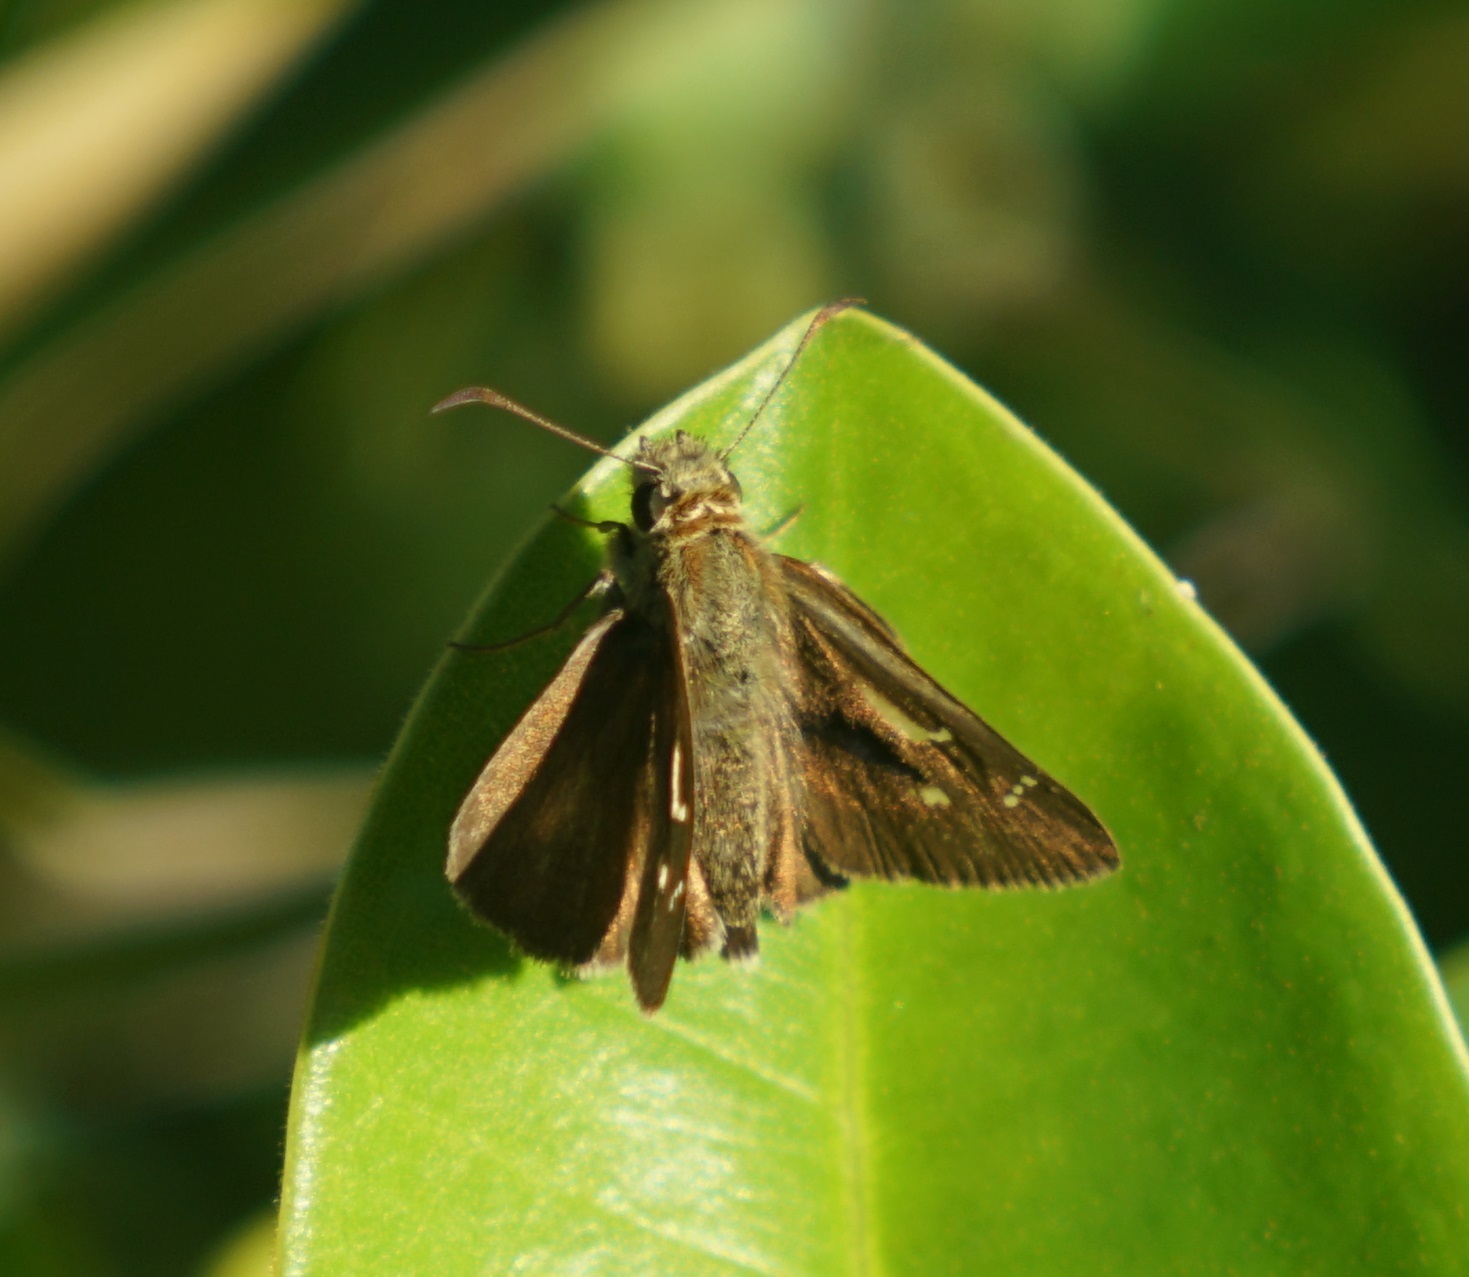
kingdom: Animalia
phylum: Arthropoda
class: Insecta
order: Lepidoptera
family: Hesperiidae
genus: Toxidia
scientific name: Toxidia
